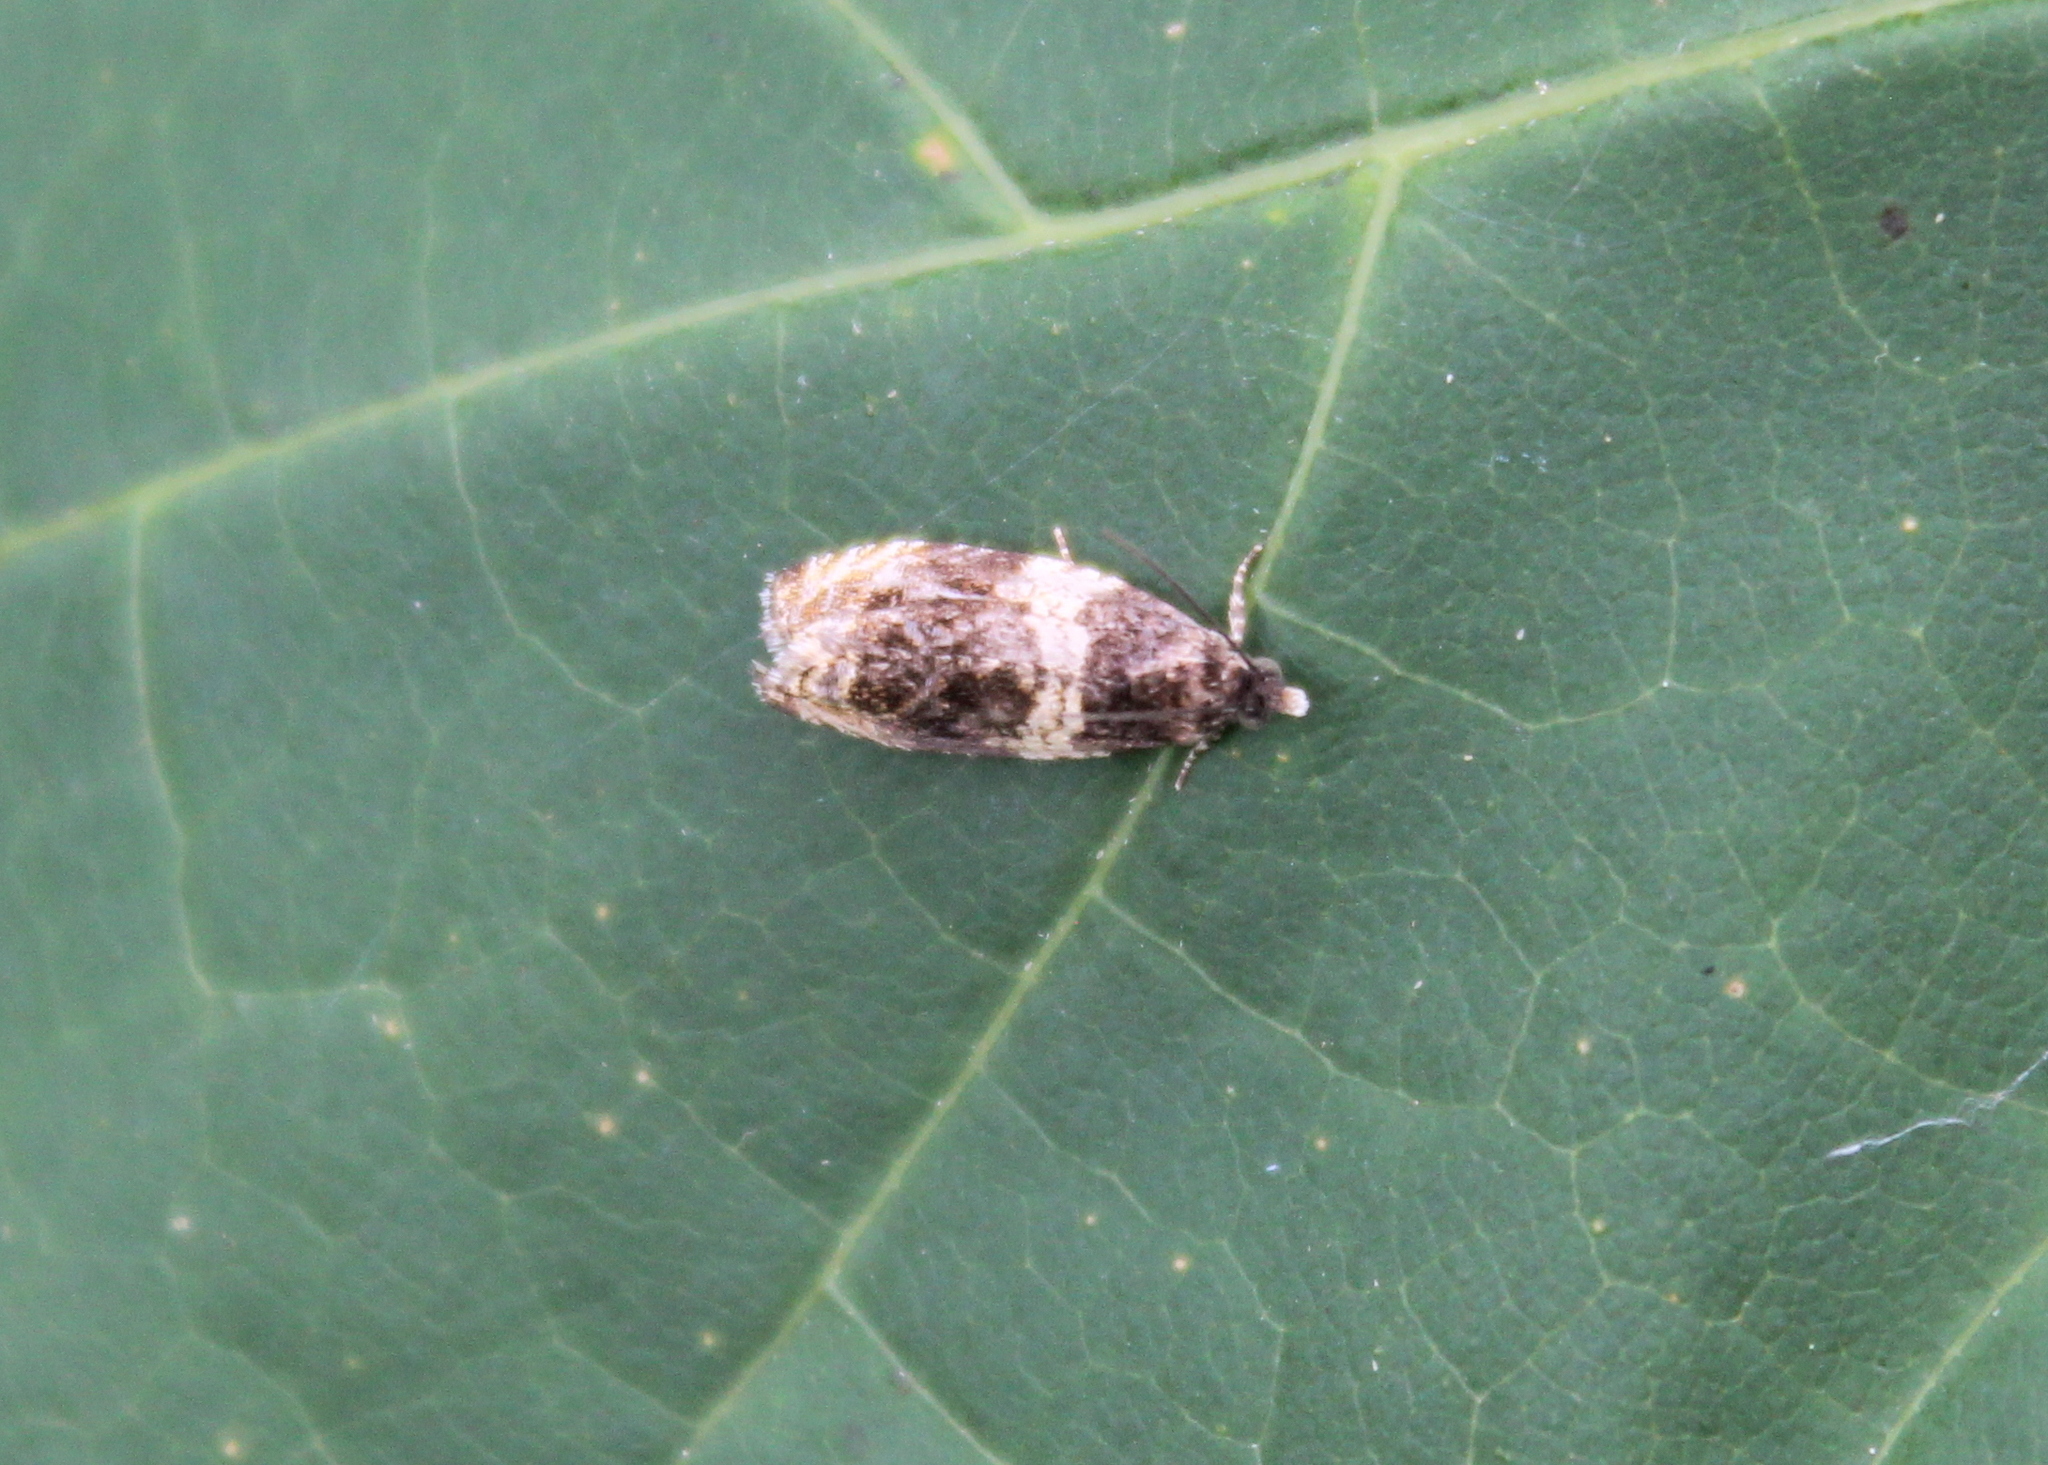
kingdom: Animalia
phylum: Arthropoda
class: Insecta
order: Lepidoptera
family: Tortricidae
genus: Olethreutes
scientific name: Olethreutes fasciatana
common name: Banded olethreutes moth
